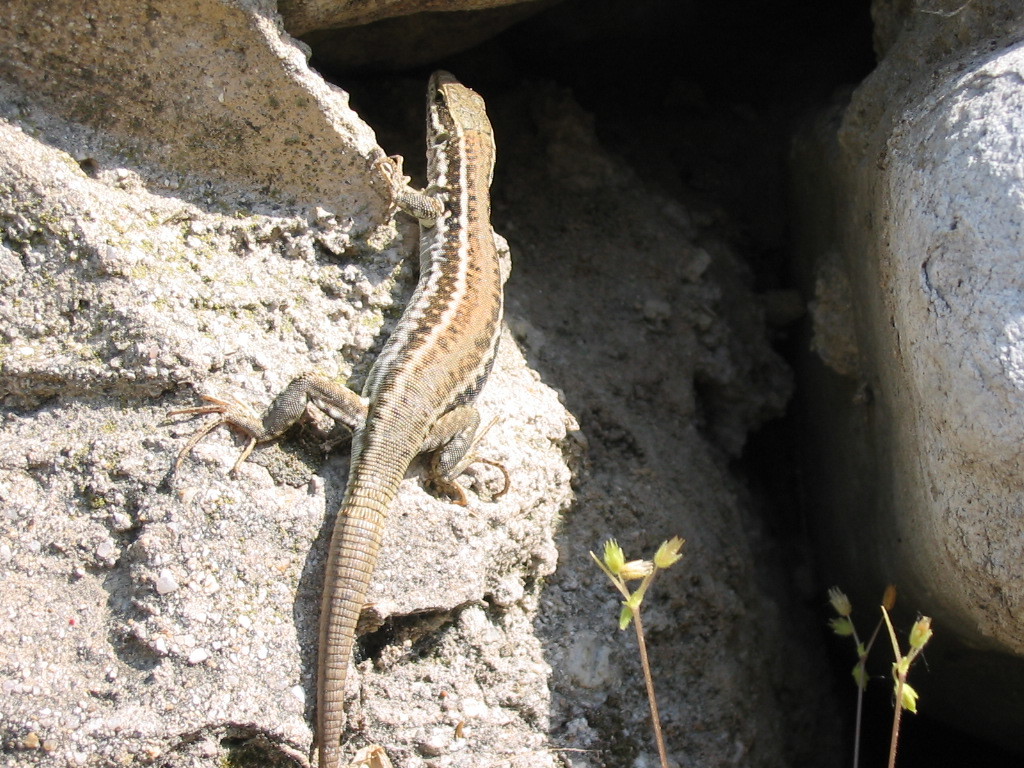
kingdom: Animalia
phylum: Chordata
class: Squamata
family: Lacertidae
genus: Podarcis
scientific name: Podarcis muralis
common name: Common wall lizard
